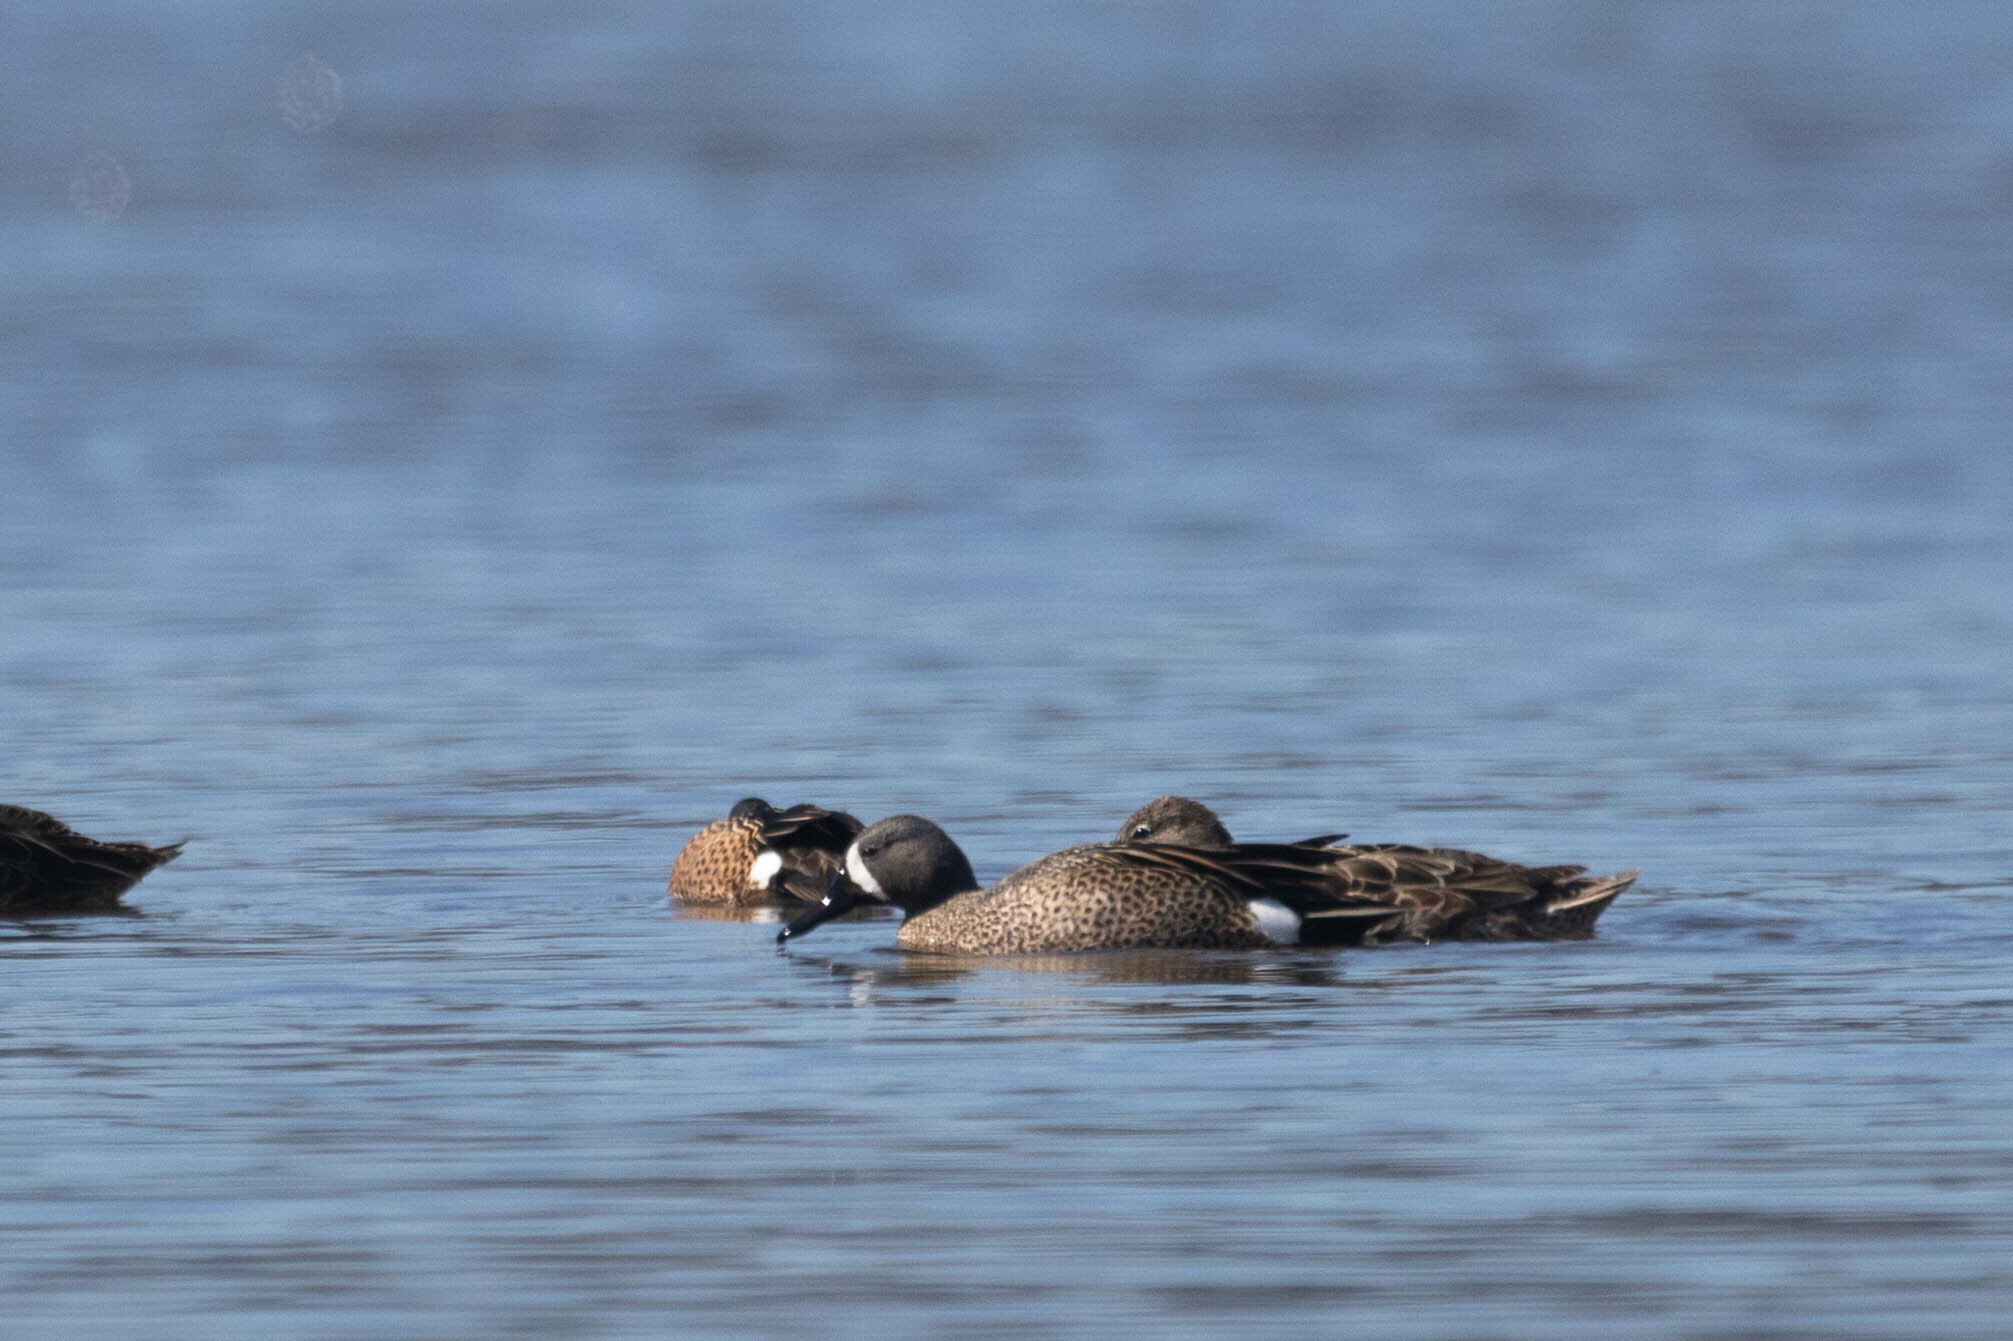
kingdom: Animalia
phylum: Chordata
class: Aves
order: Anseriformes
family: Anatidae
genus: Spatula
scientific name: Spatula discors
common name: Blue-winged teal
